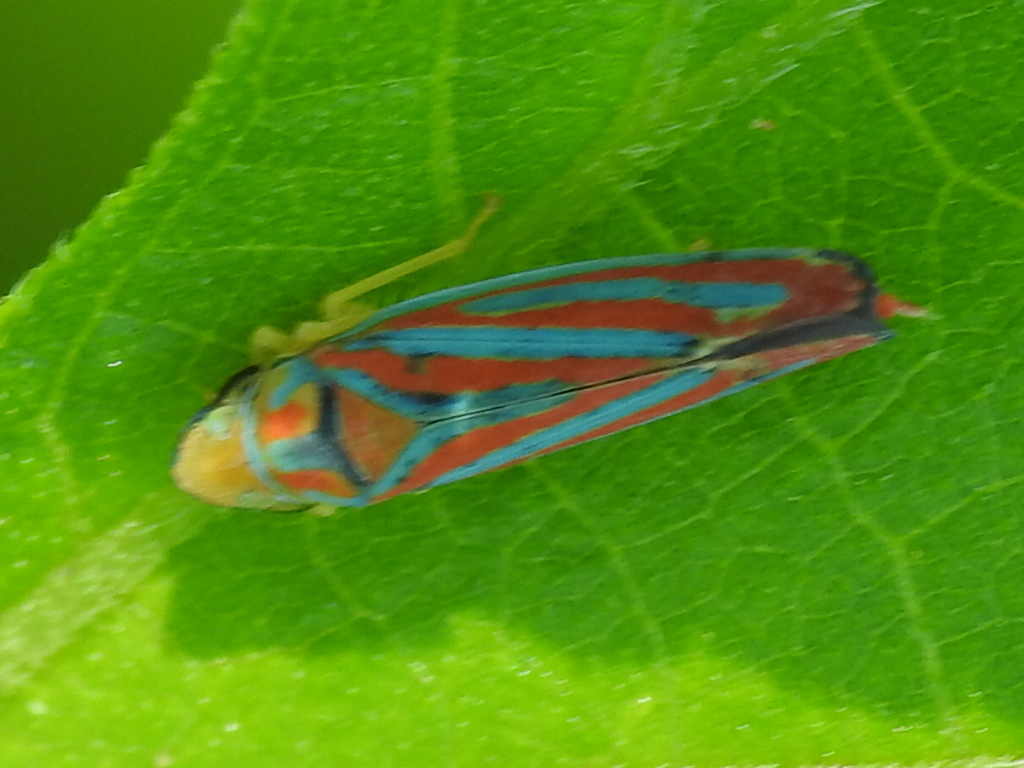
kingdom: Animalia
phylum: Arthropoda
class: Insecta
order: Hemiptera
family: Cicadellidae
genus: Graphocephala
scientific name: Graphocephala coccinea
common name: Candy-striped leafhopper
